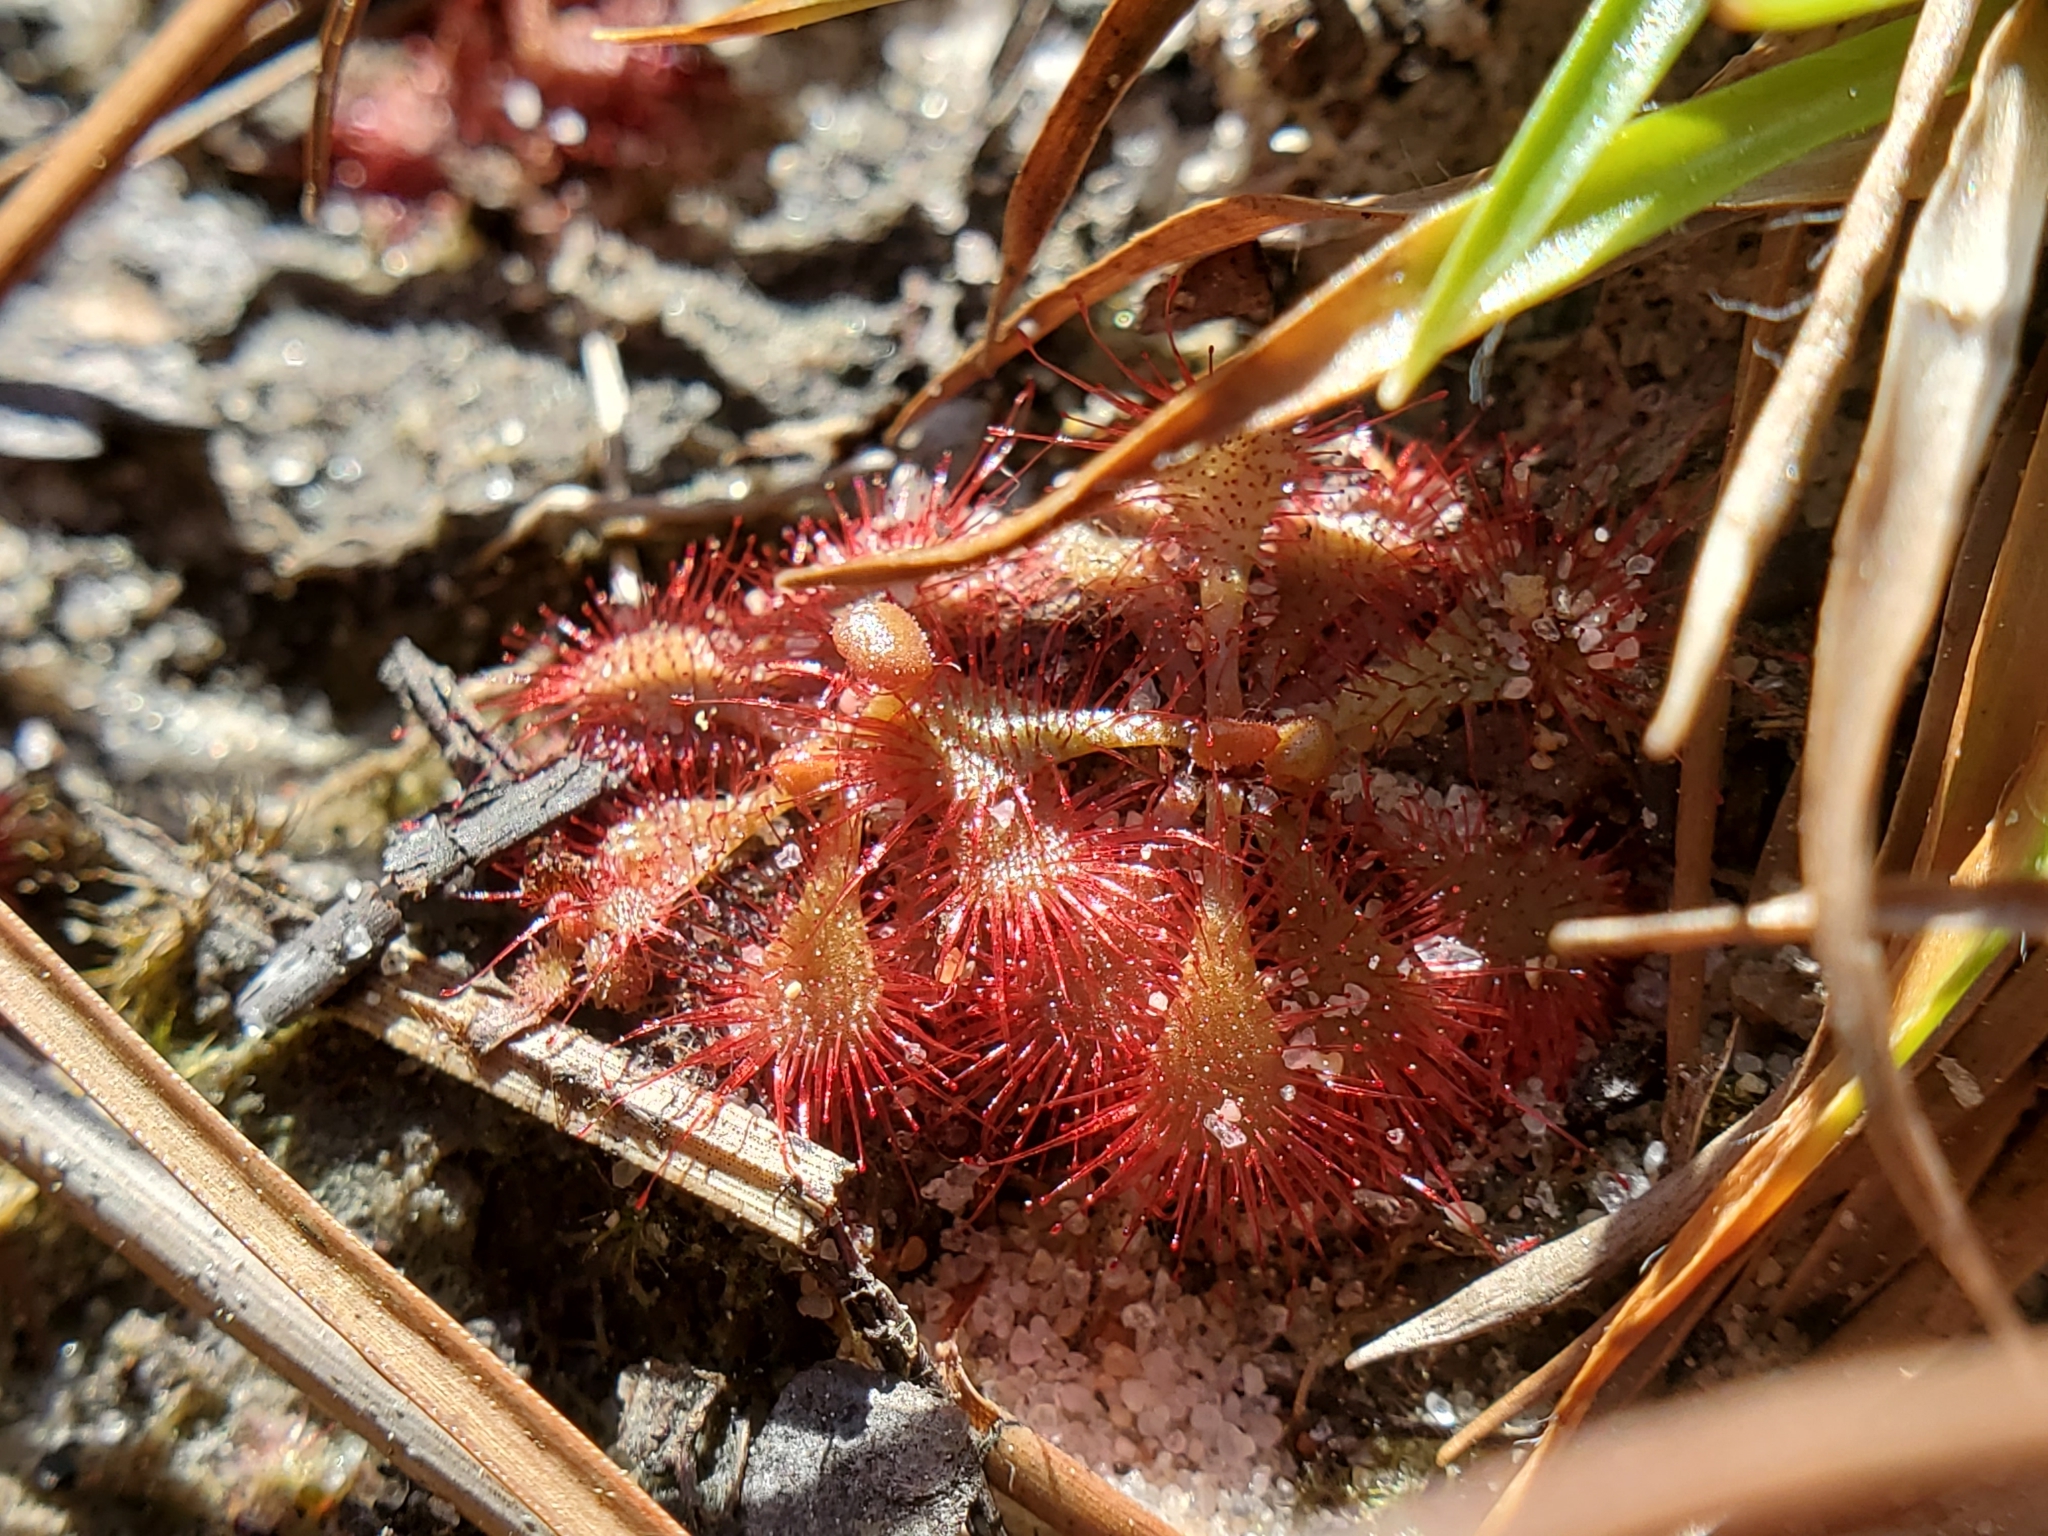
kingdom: Plantae
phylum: Tracheophyta
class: Magnoliopsida
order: Caryophyllales
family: Droseraceae
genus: Drosera
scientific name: Drosera brevifolia
